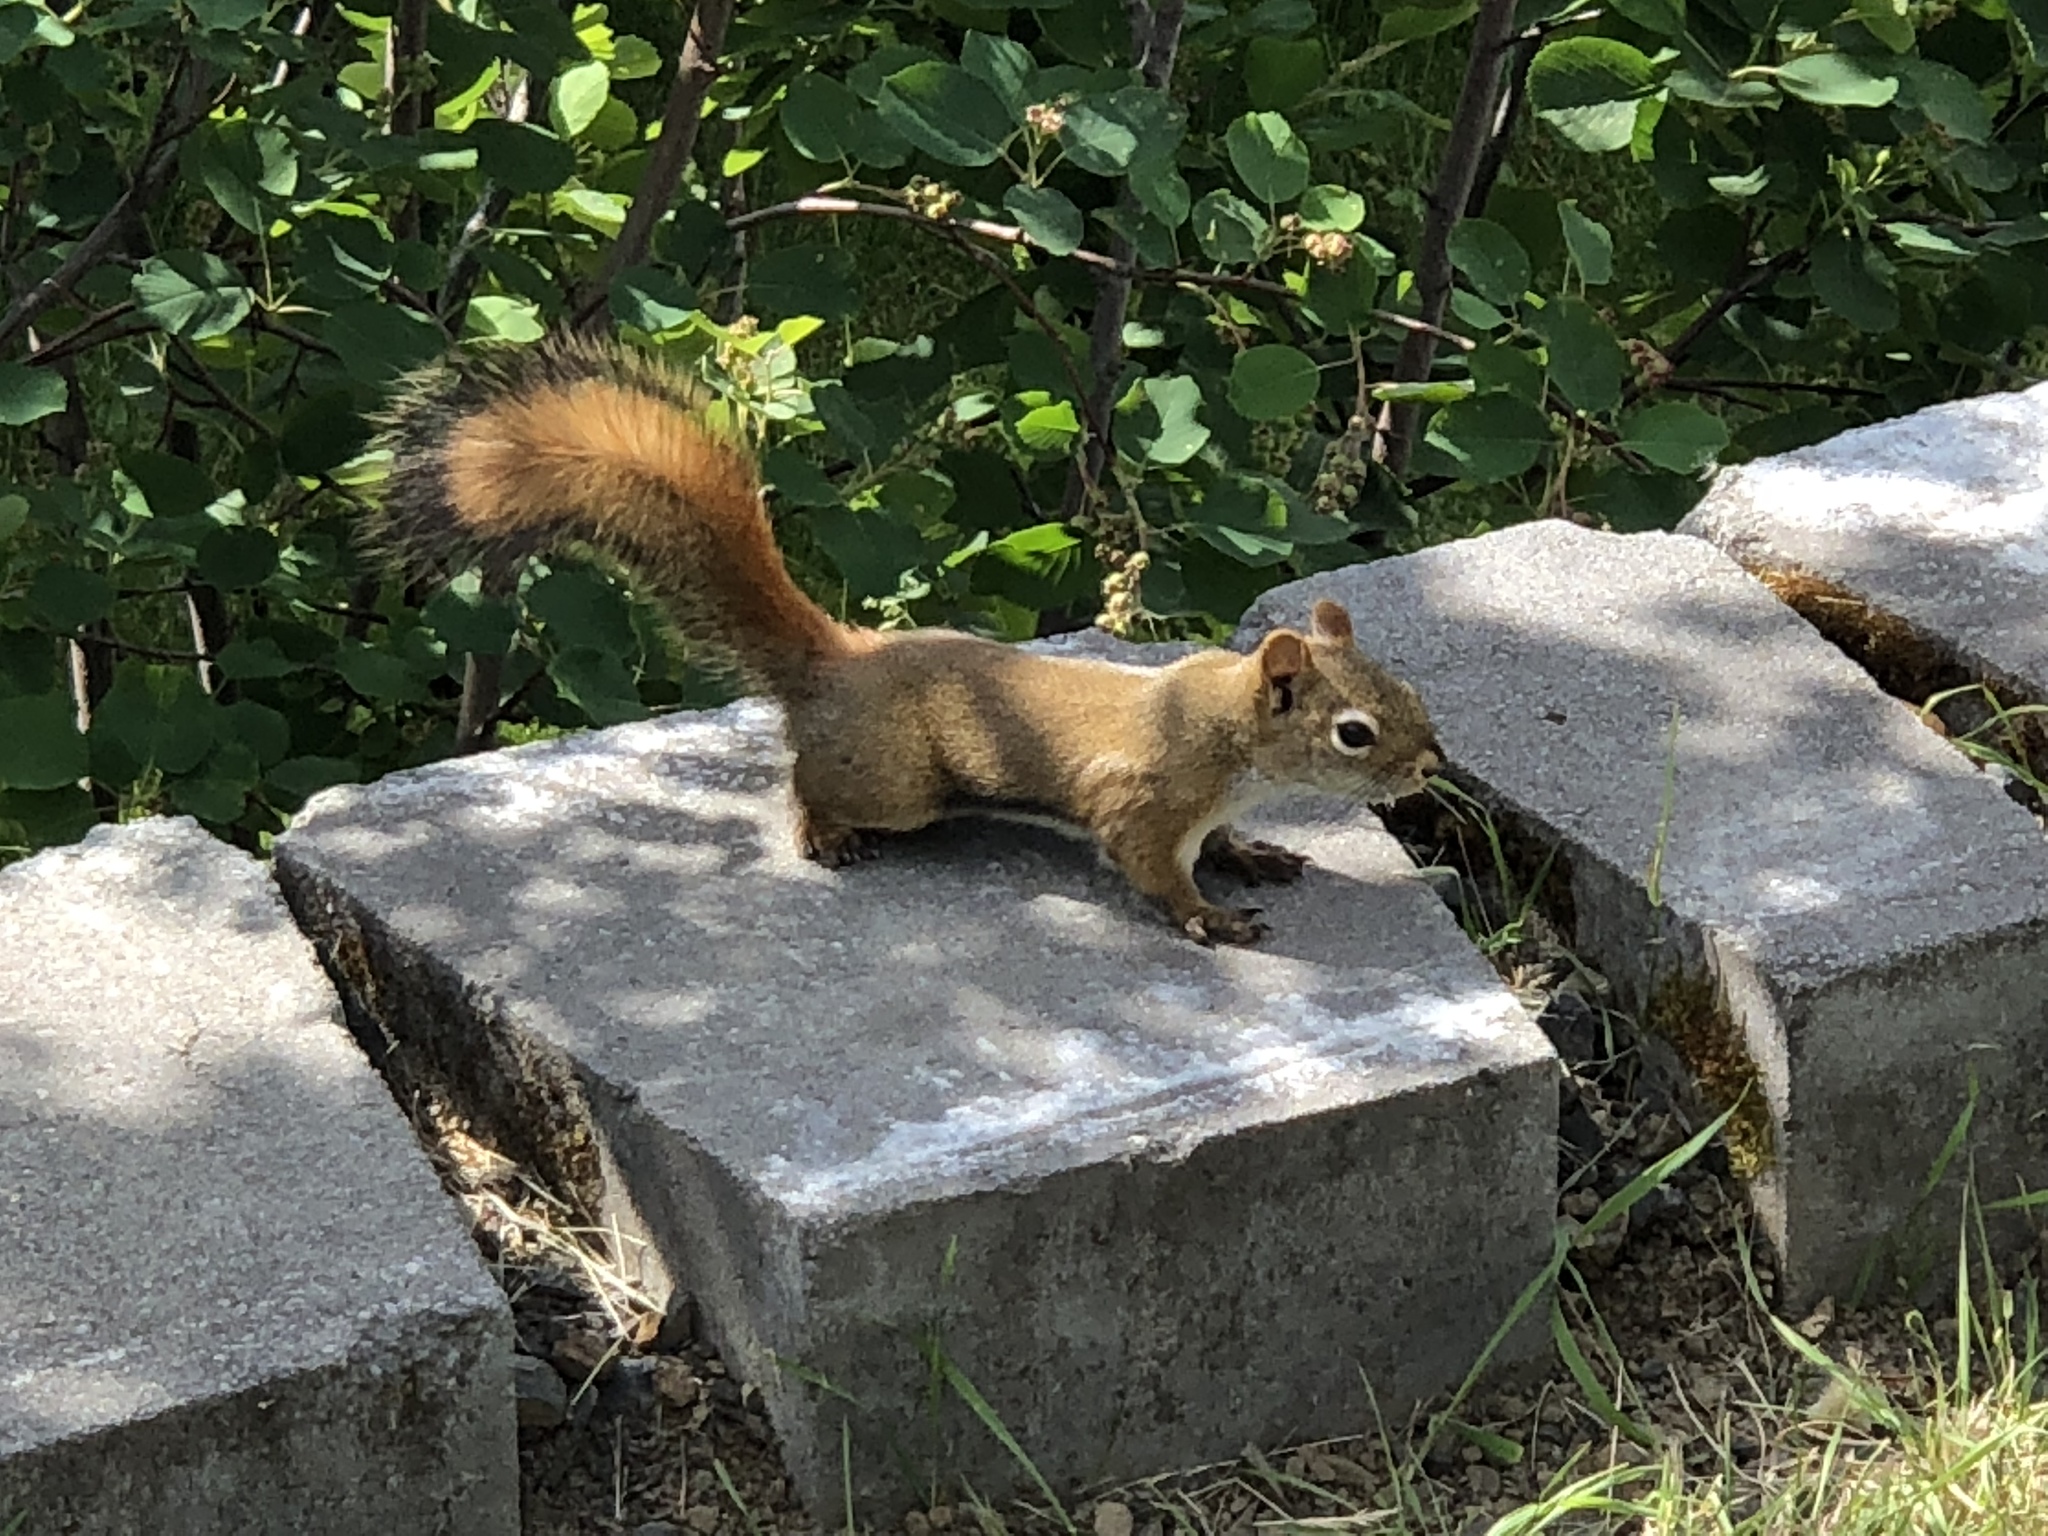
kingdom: Animalia
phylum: Chordata
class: Mammalia
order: Rodentia
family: Sciuridae
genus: Tamiasciurus
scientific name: Tamiasciurus hudsonicus
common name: Red squirrel
